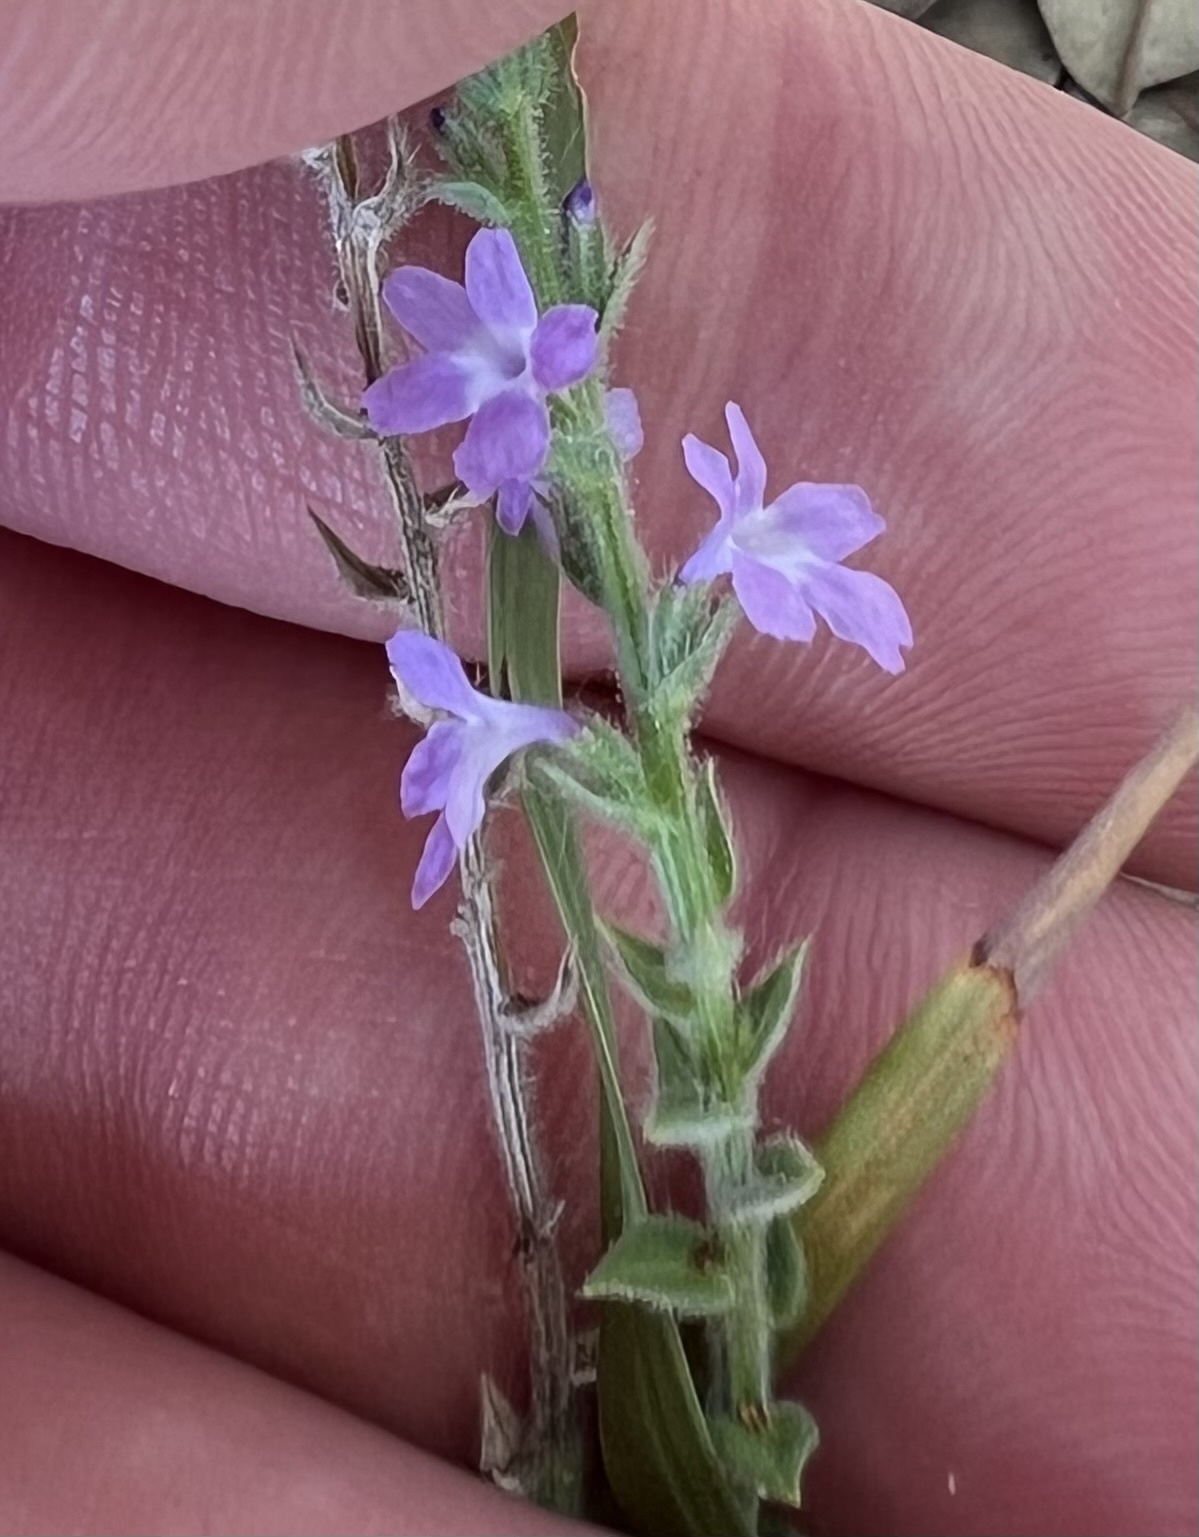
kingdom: Plantae
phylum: Tracheophyta
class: Magnoliopsida
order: Lamiales
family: Verbenaceae
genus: Verbena
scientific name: Verbena canescens
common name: Gray vervain
